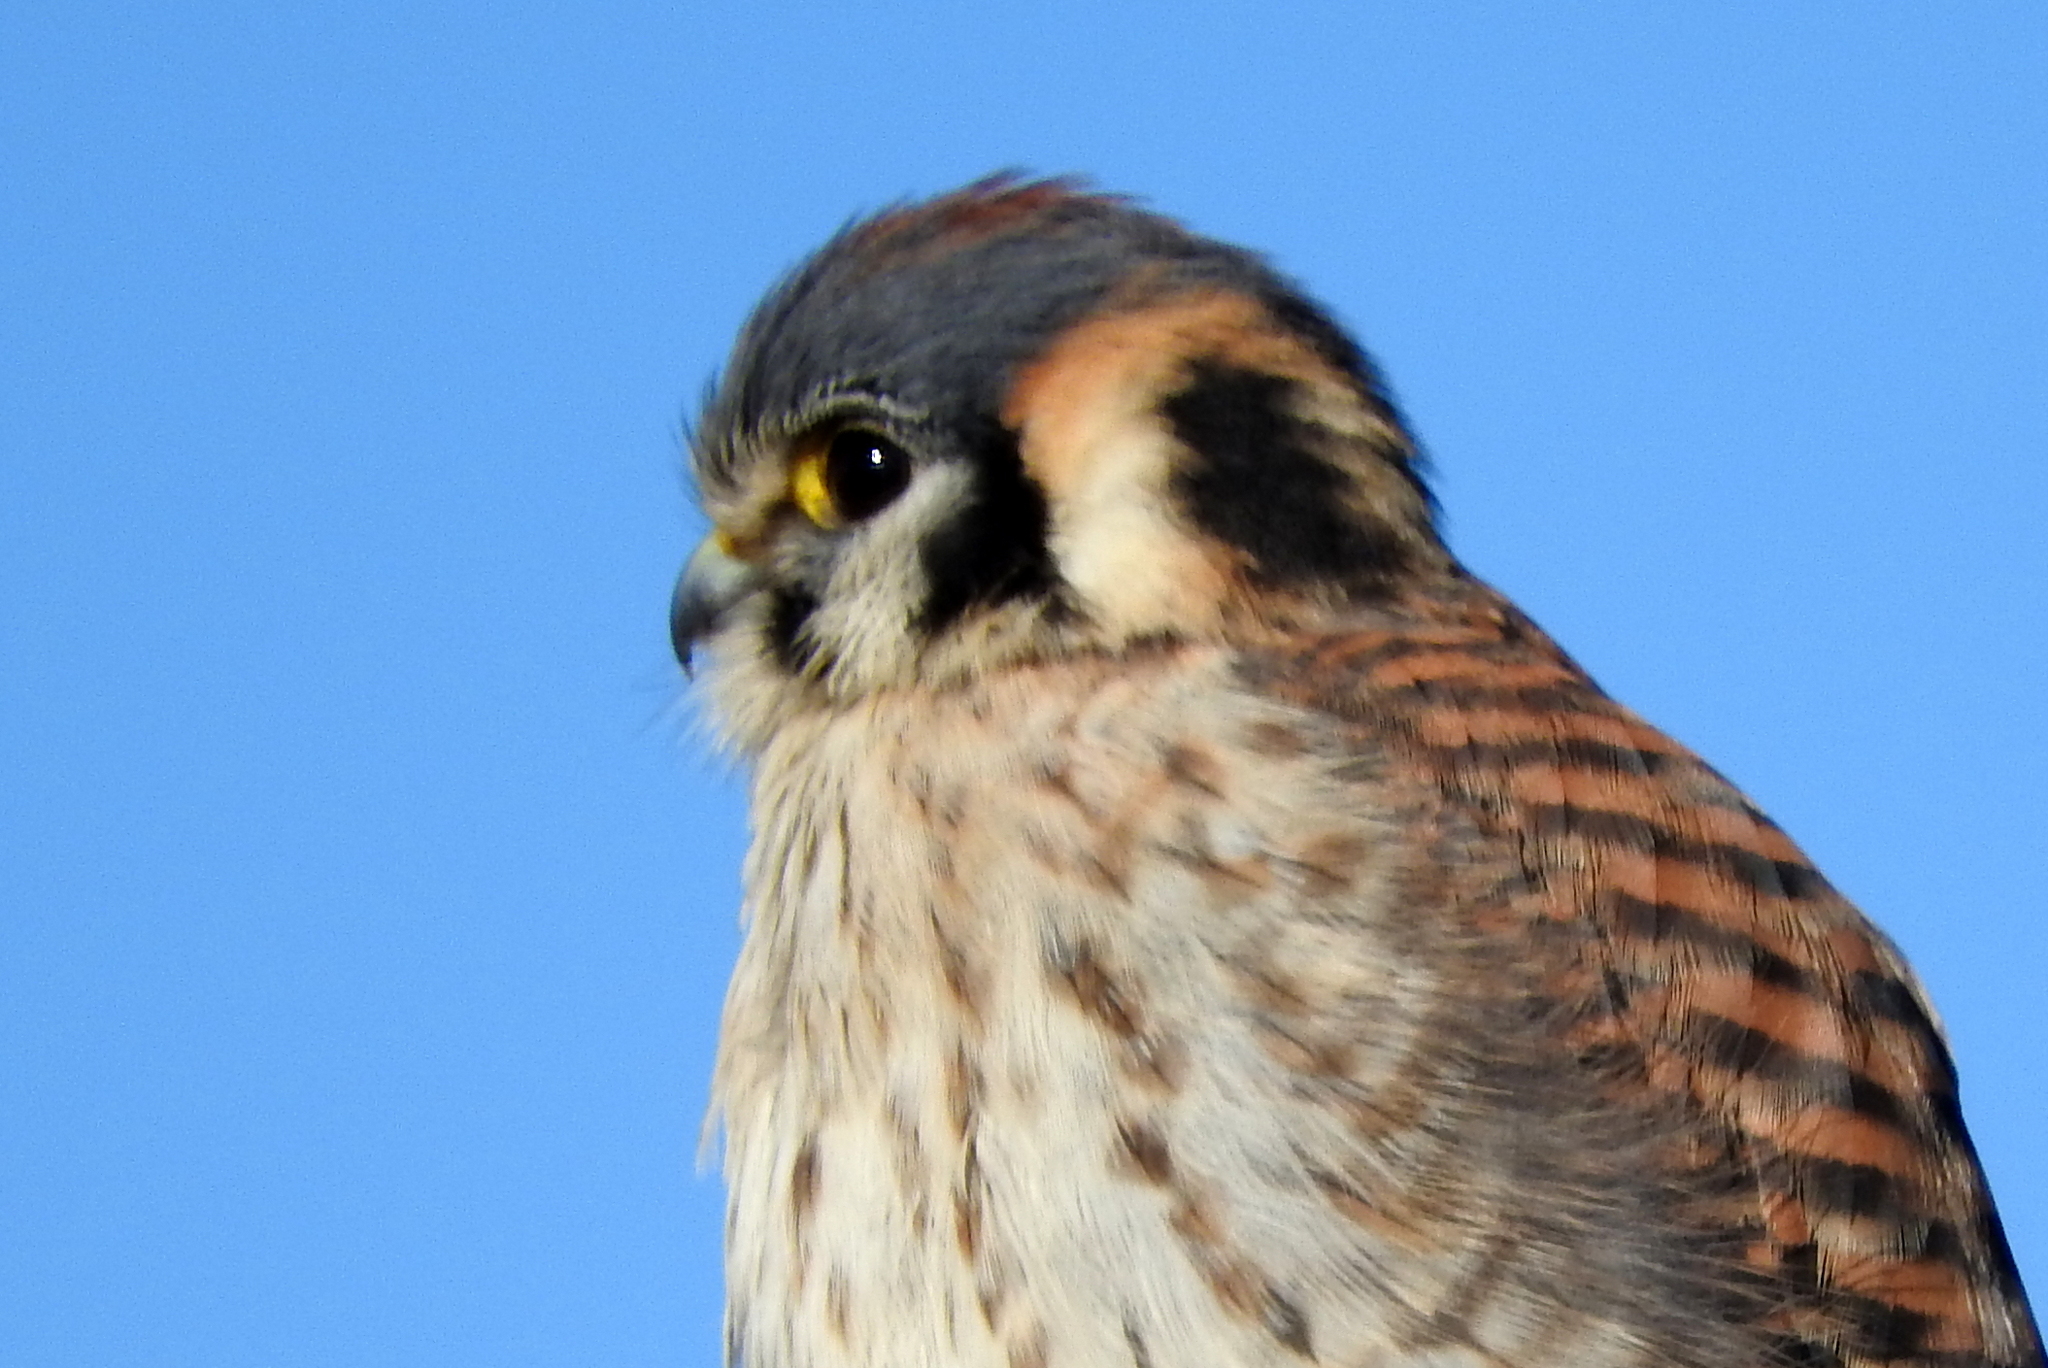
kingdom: Animalia
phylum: Chordata
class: Aves
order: Falconiformes
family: Falconidae
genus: Falco
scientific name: Falco sparverius
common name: American kestrel
